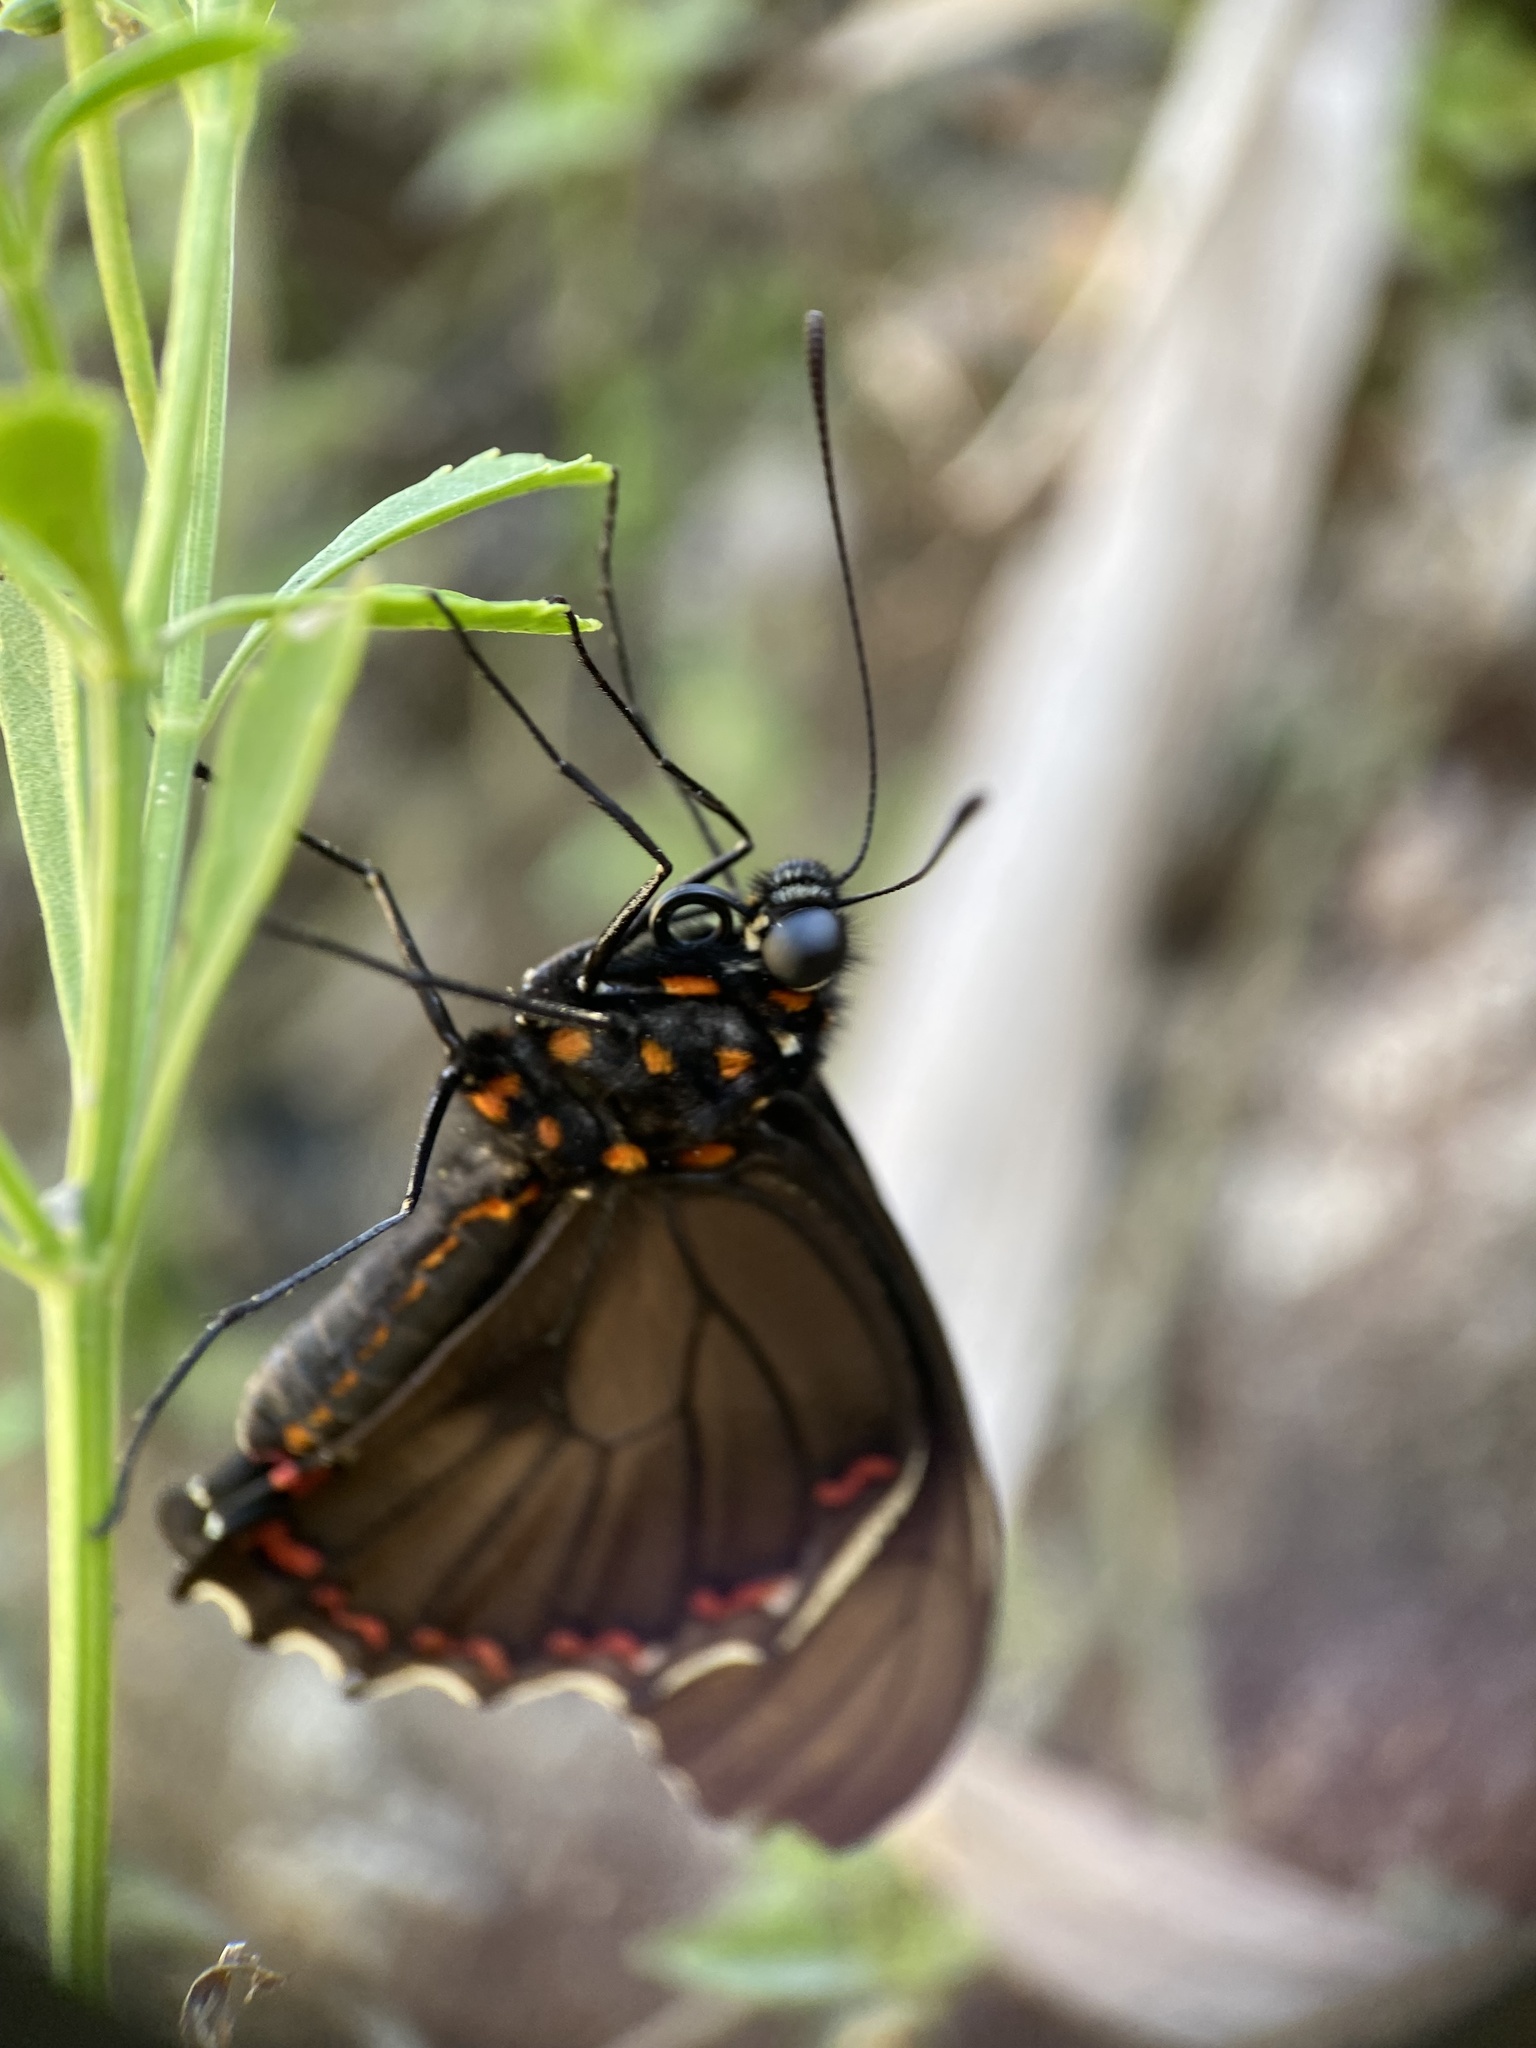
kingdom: Animalia
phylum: Arthropoda
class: Insecta
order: Lepidoptera
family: Papilionidae
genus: Battus
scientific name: Battus polydamas
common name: Polydamas swallowtail
